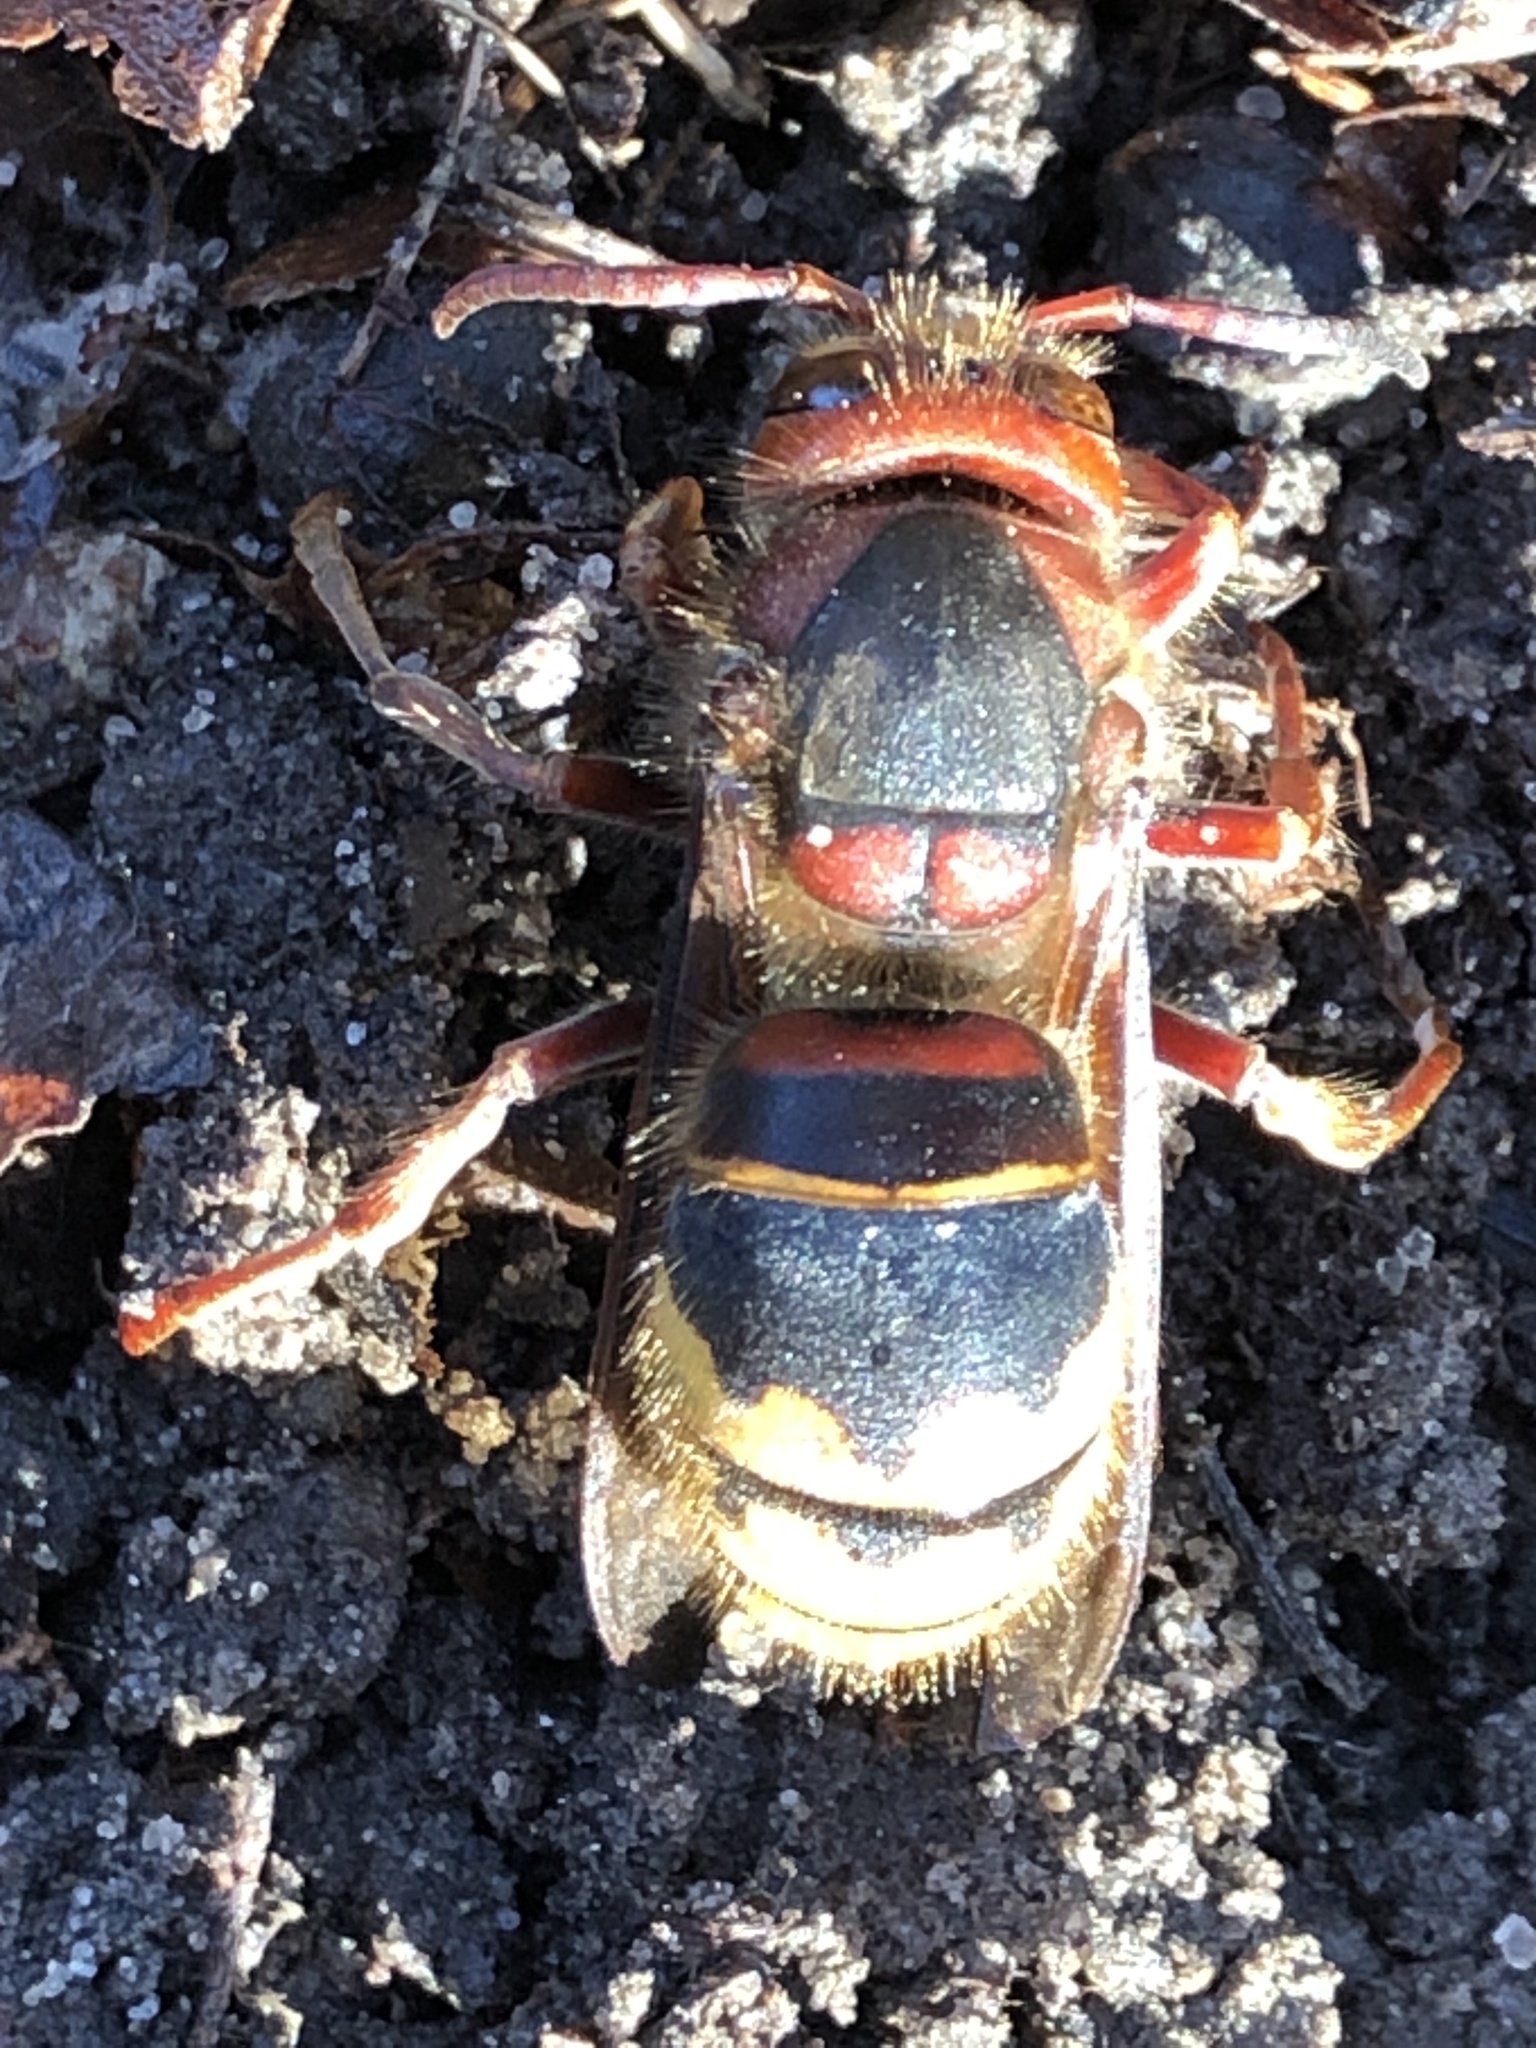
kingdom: Animalia
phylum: Arthropoda
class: Insecta
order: Hymenoptera
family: Vespidae
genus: Vespa
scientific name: Vespa crabro
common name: Hornet
